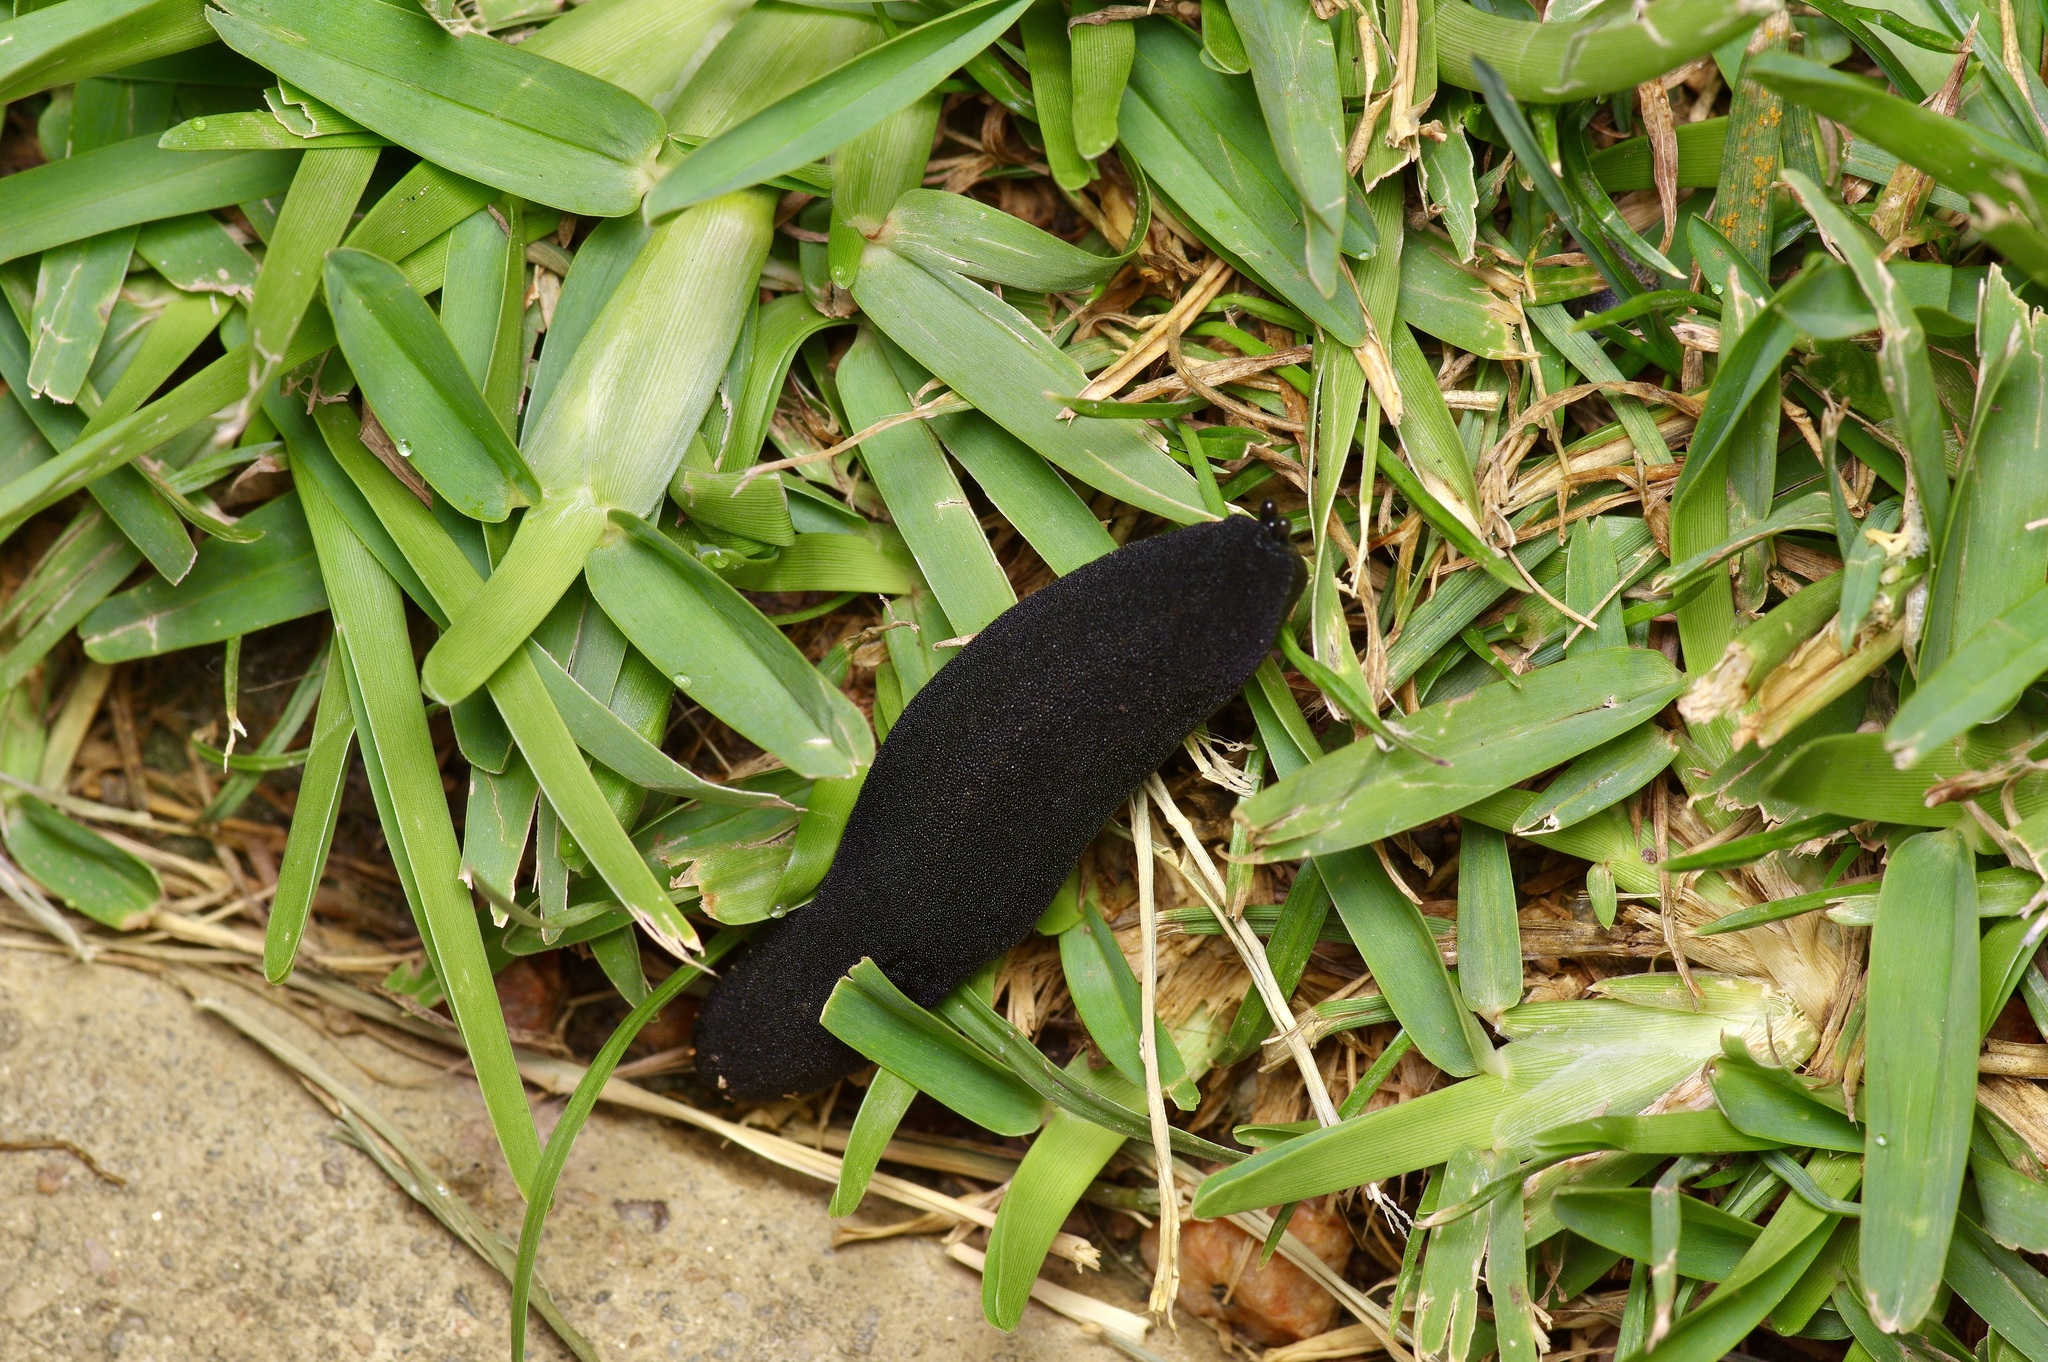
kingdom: Animalia
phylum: Mollusca
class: Gastropoda
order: Systellommatophora
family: Veronicellidae
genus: Belocaulus
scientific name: Belocaulus angustipes
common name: Black velvet leatherleaf slug
